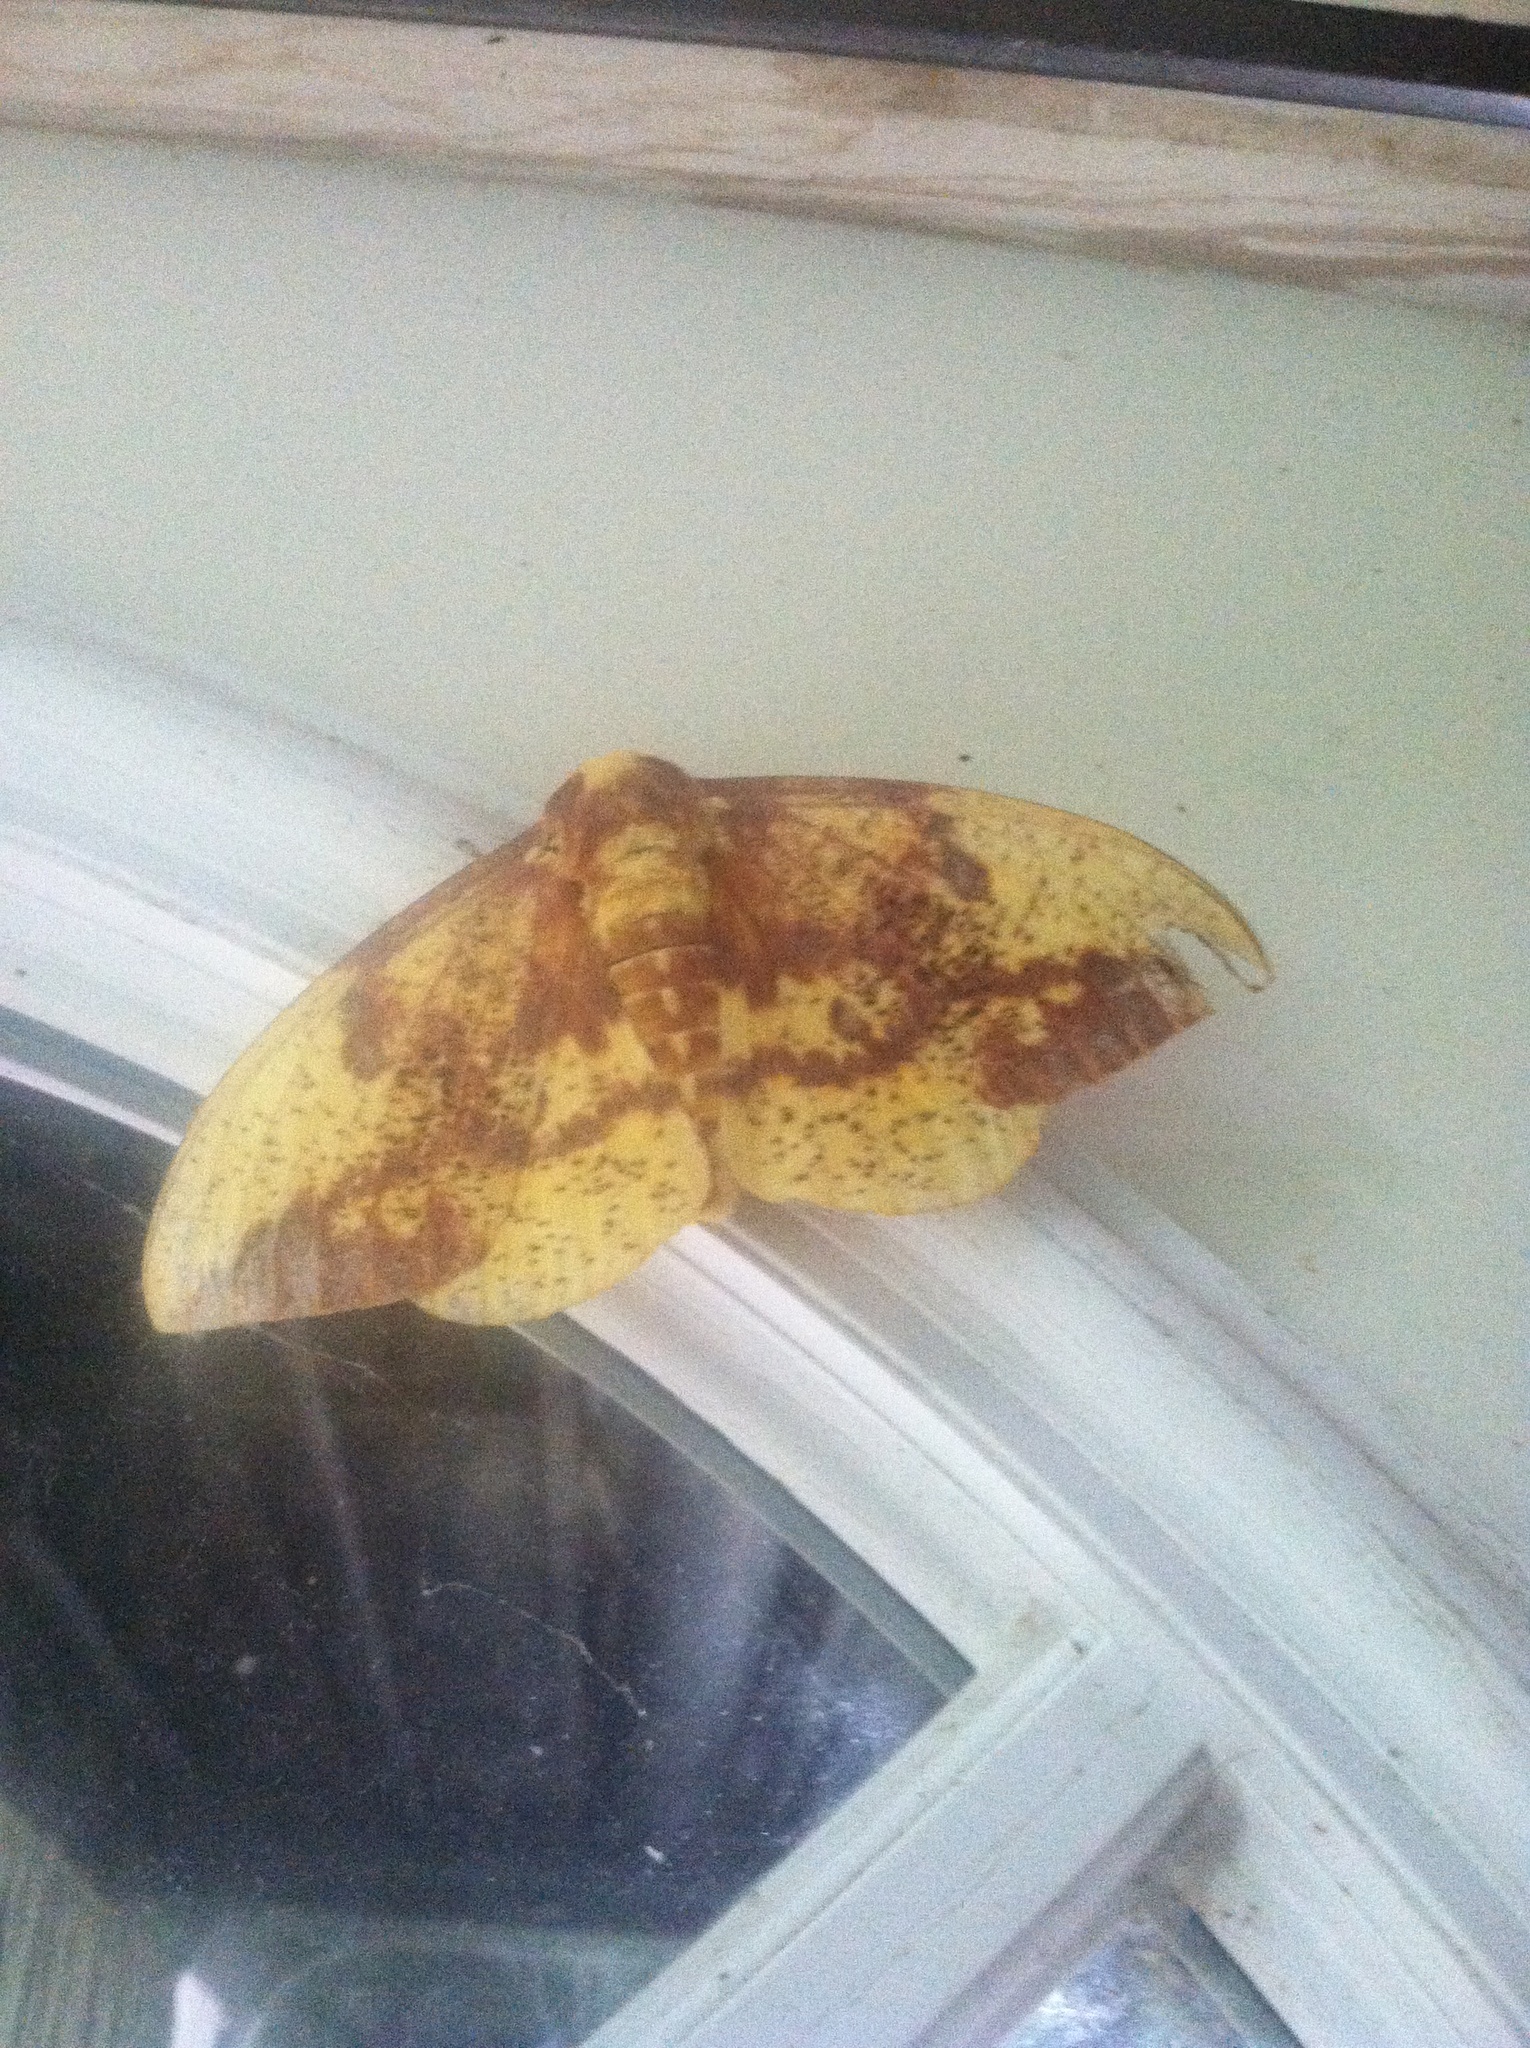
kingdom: Animalia
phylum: Arthropoda
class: Insecta
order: Lepidoptera
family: Saturniidae
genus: Eacles
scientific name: Eacles imperialis
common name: Imperial moth
